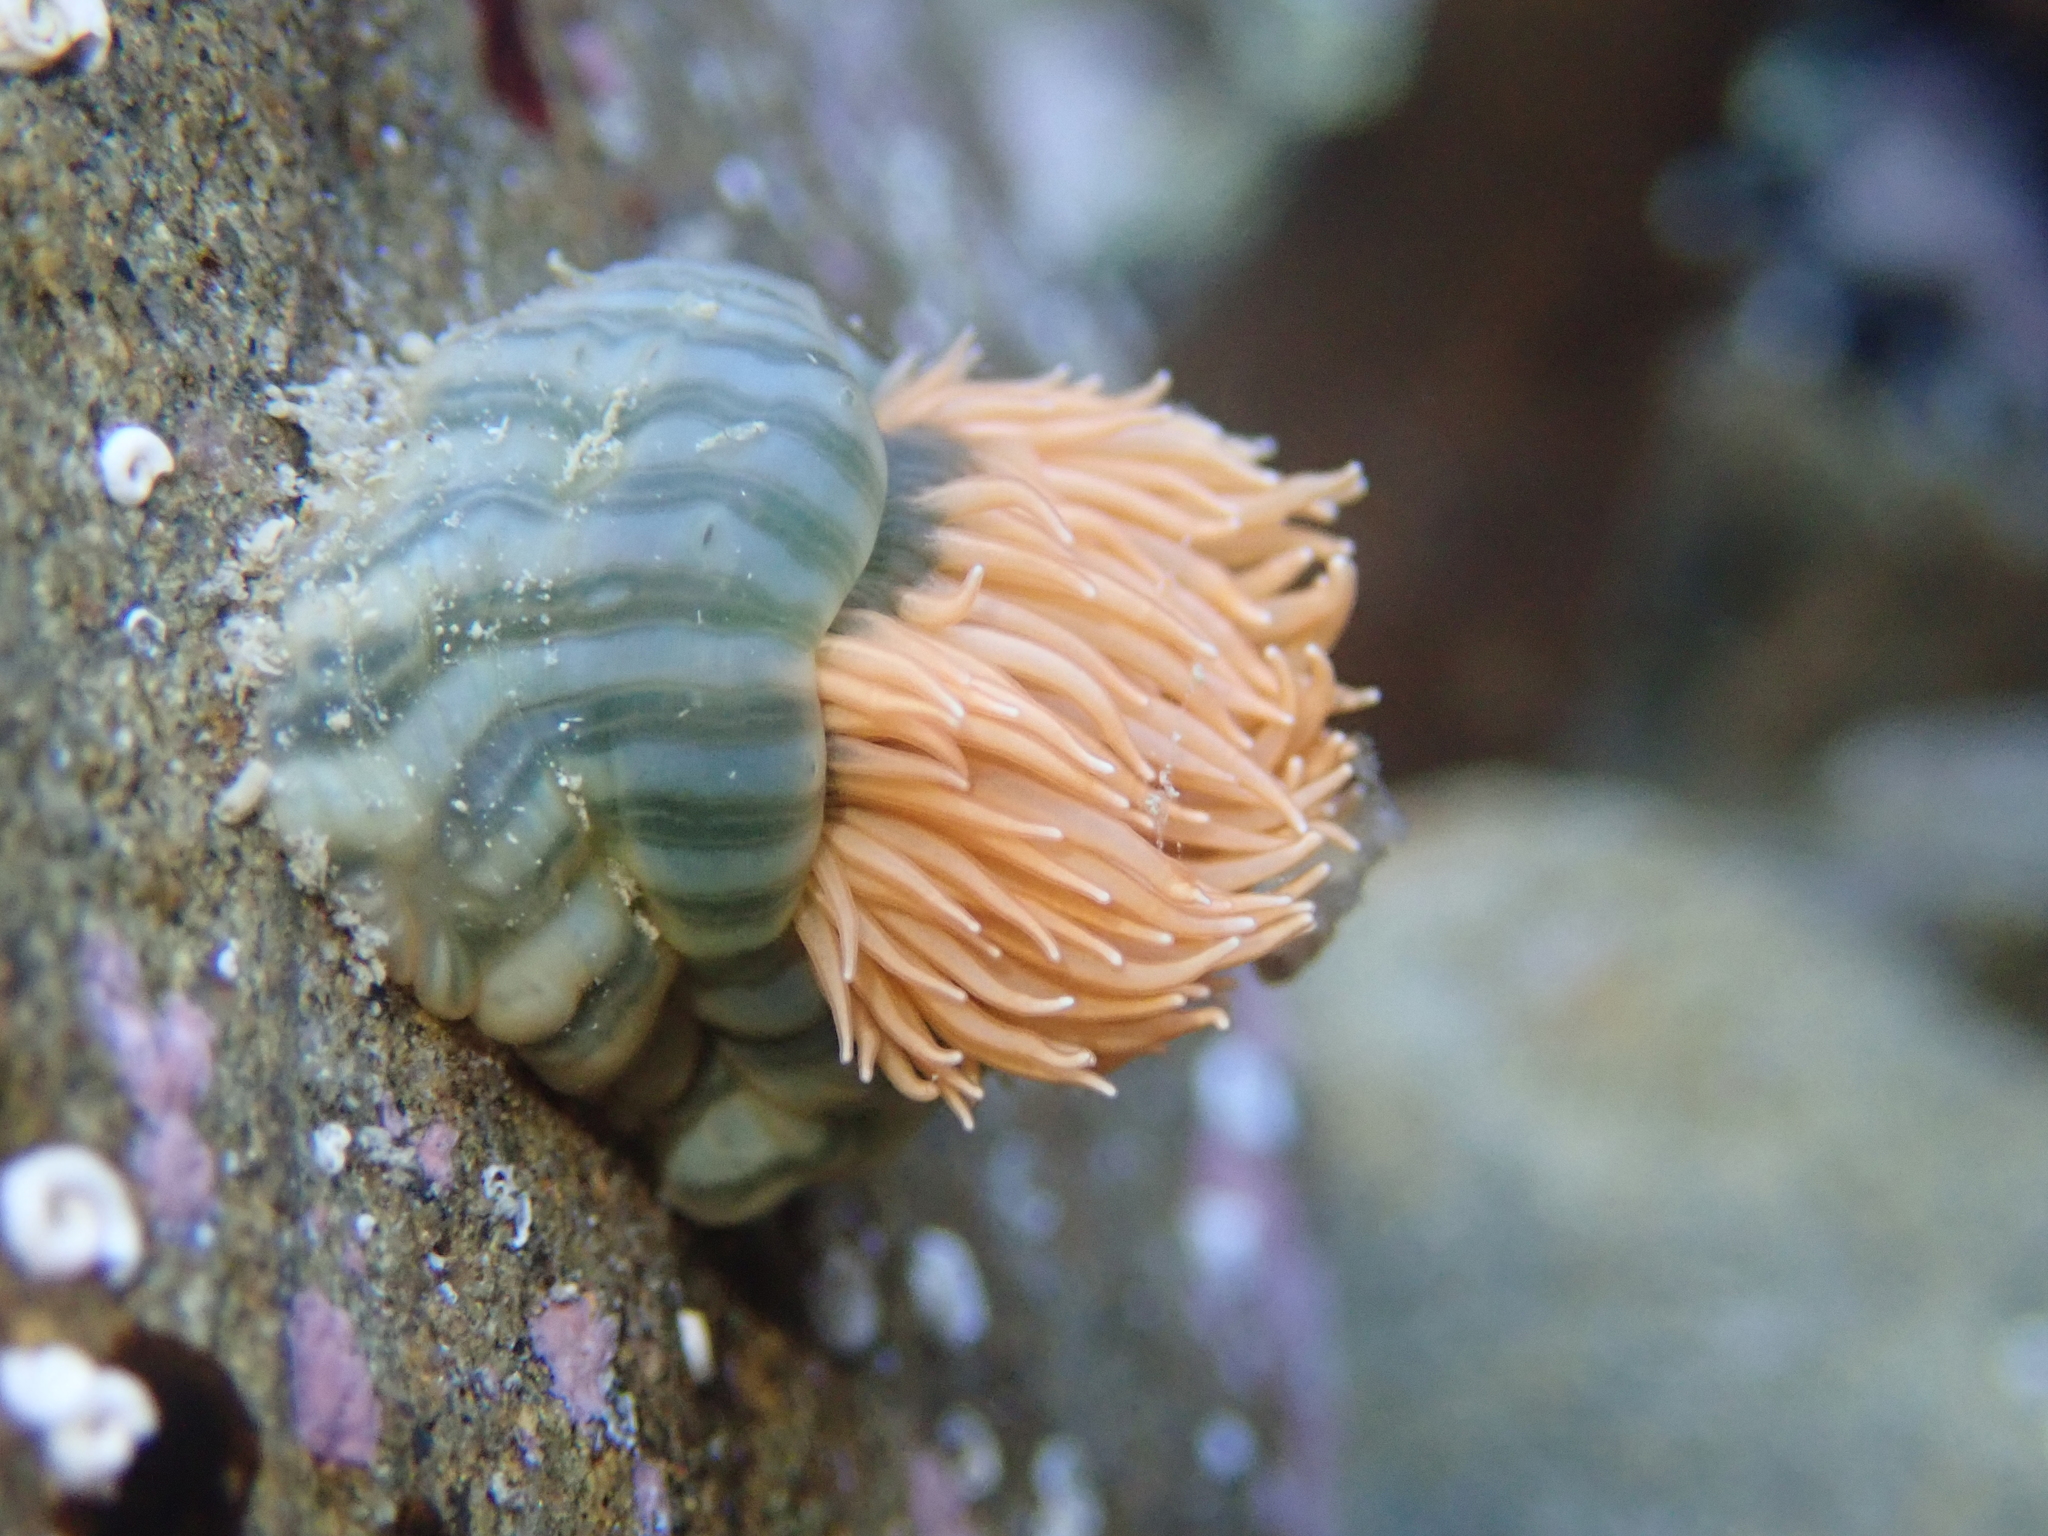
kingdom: Animalia
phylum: Cnidaria
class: Anthozoa
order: Actiniaria
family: Diadumenidae
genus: Diadumene
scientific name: Diadumene neozelanica
